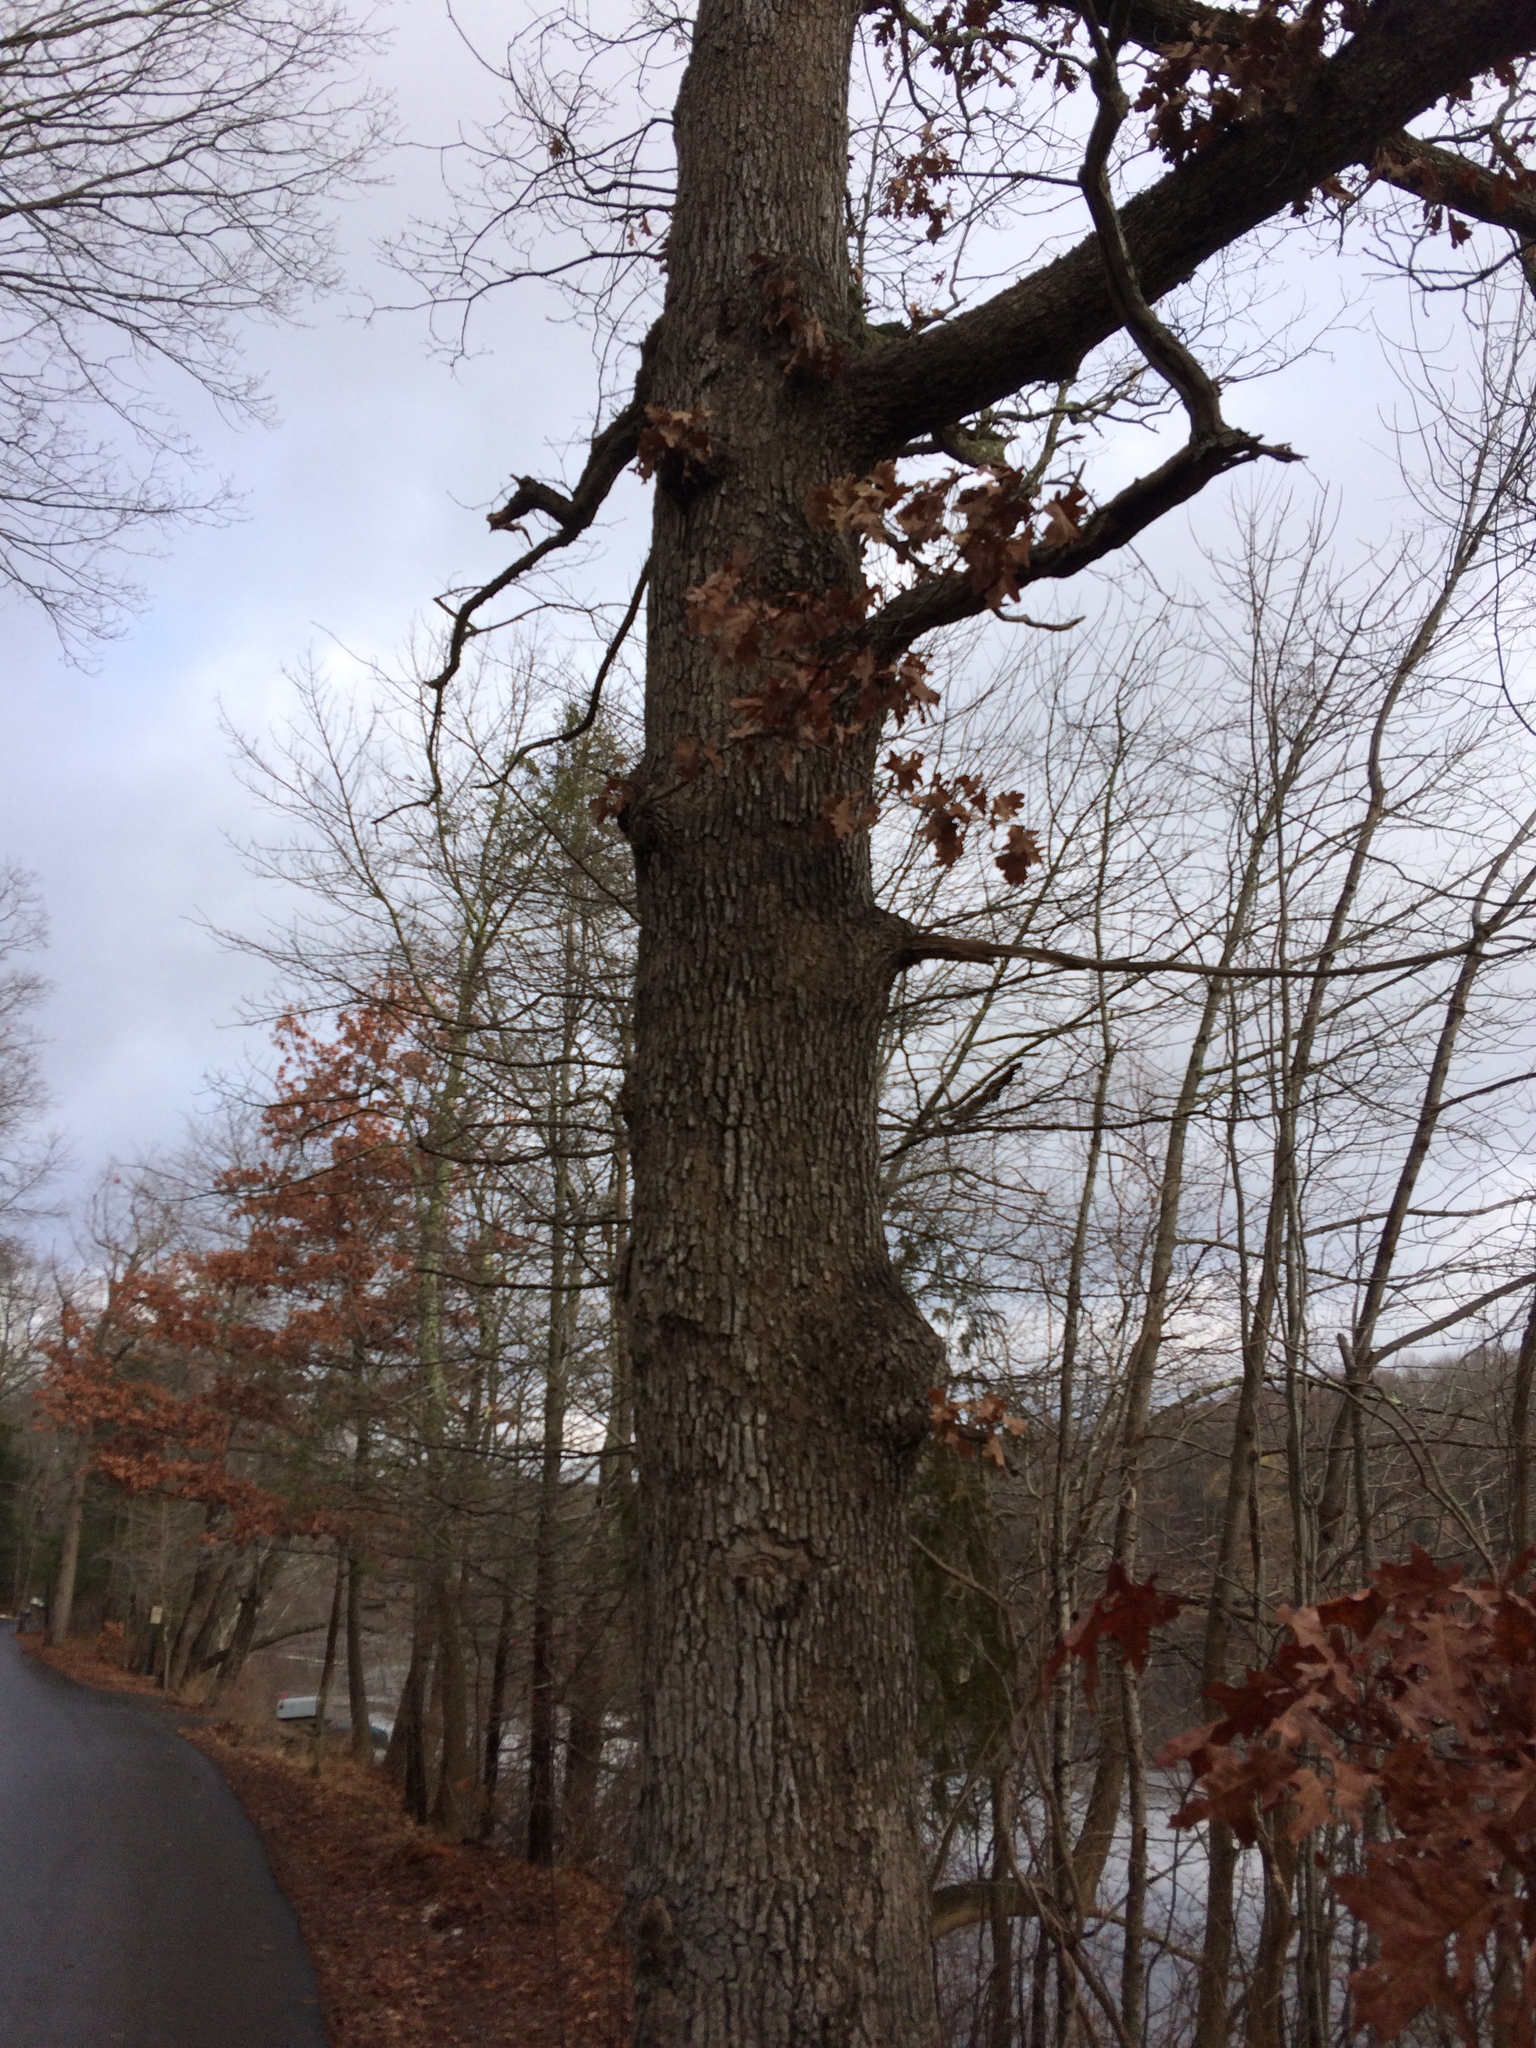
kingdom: Plantae
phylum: Tracheophyta
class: Magnoliopsida
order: Fagales
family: Fagaceae
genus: Quercus
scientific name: Quercus alba
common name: White oak
